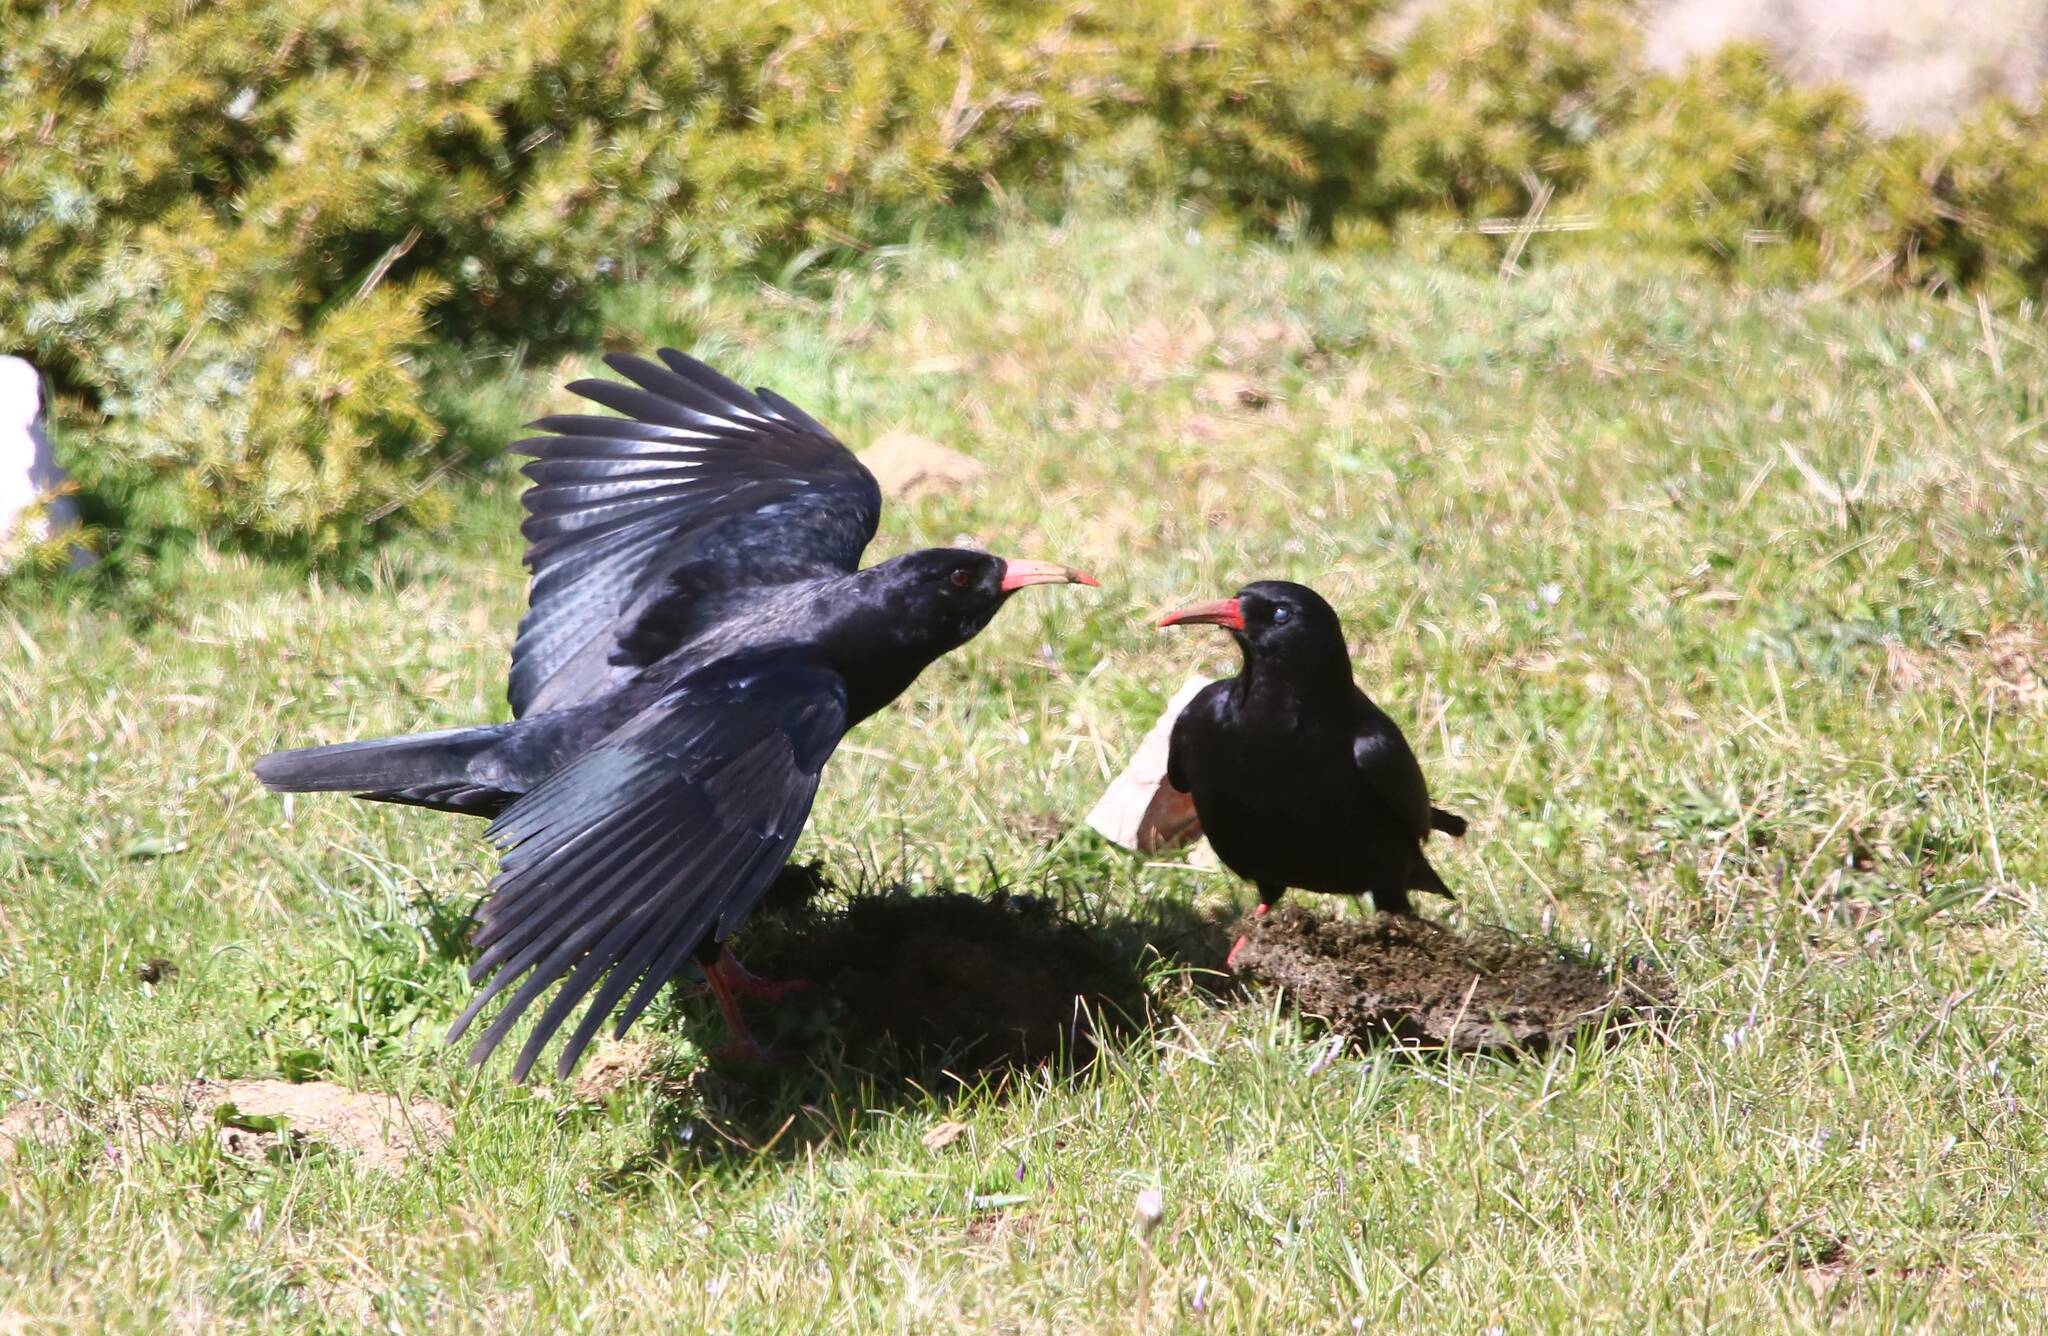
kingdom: Animalia
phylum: Chordata
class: Aves
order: Passeriformes
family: Corvidae
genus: Pyrrhocorax
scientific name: Pyrrhocorax pyrrhocorax
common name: Red-billed chough
